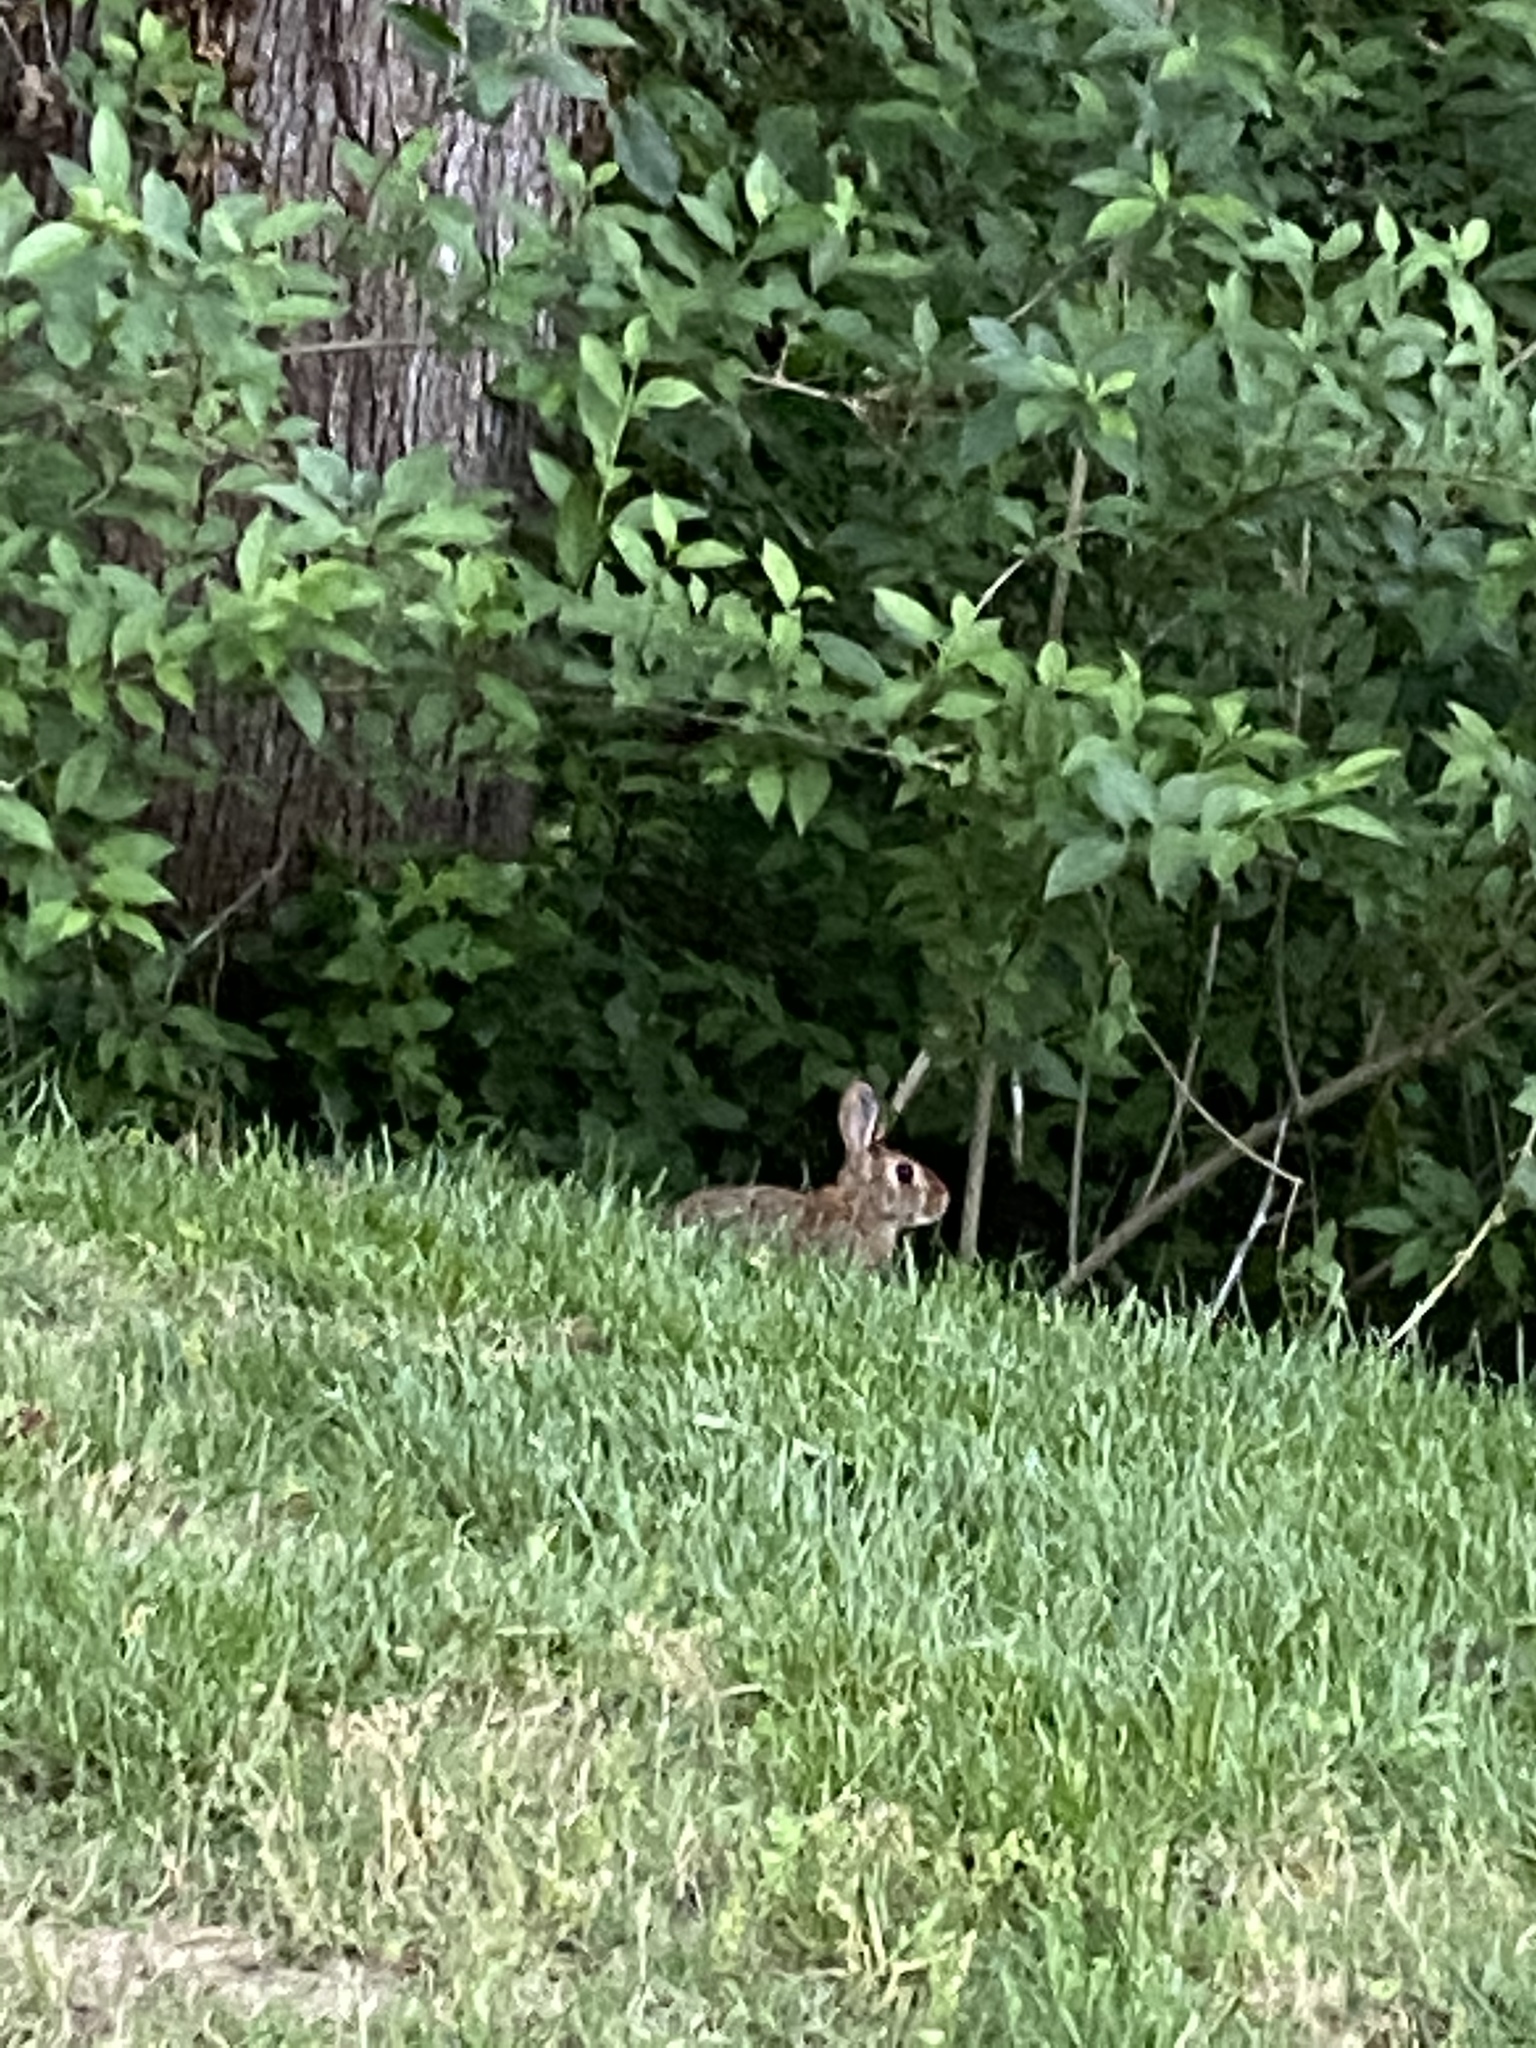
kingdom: Animalia
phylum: Chordata
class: Mammalia
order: Lagomorpha
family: Leporidae
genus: Sylvilagus
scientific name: Sylvilagus floridanus
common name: Eastern cottontail
